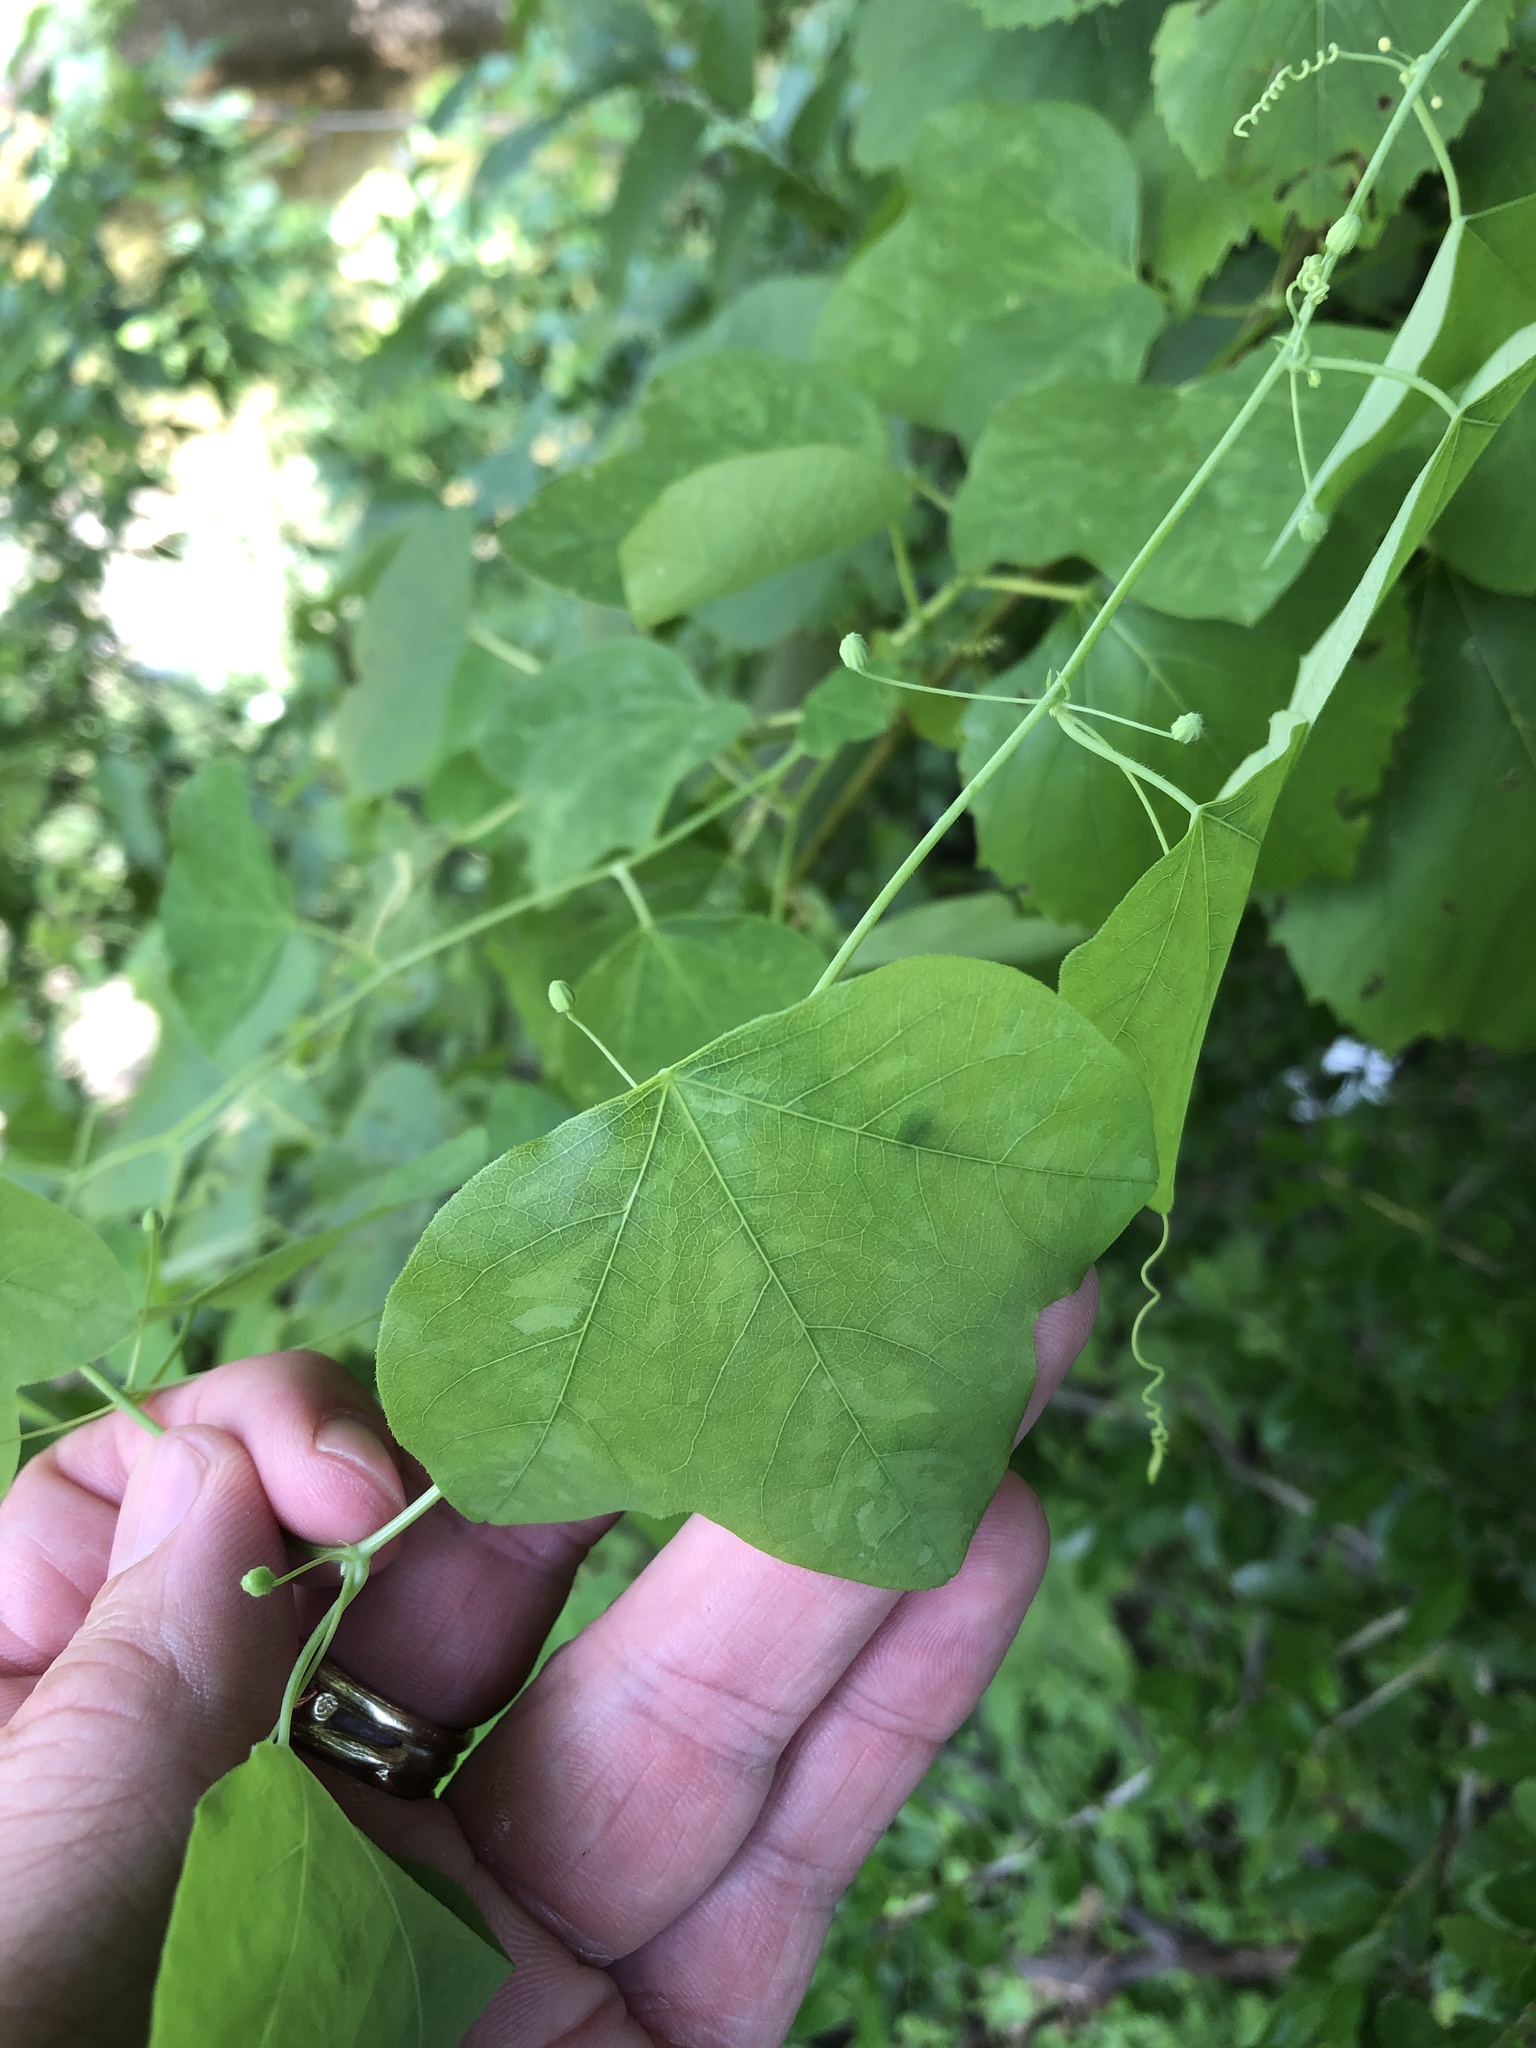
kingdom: Plantae
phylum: Tracheophyta
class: Magnoliopsida
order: Malpighiales
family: Passifloraceae
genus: Passiflora
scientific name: Passiflora lutea
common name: Yellow passionflower
